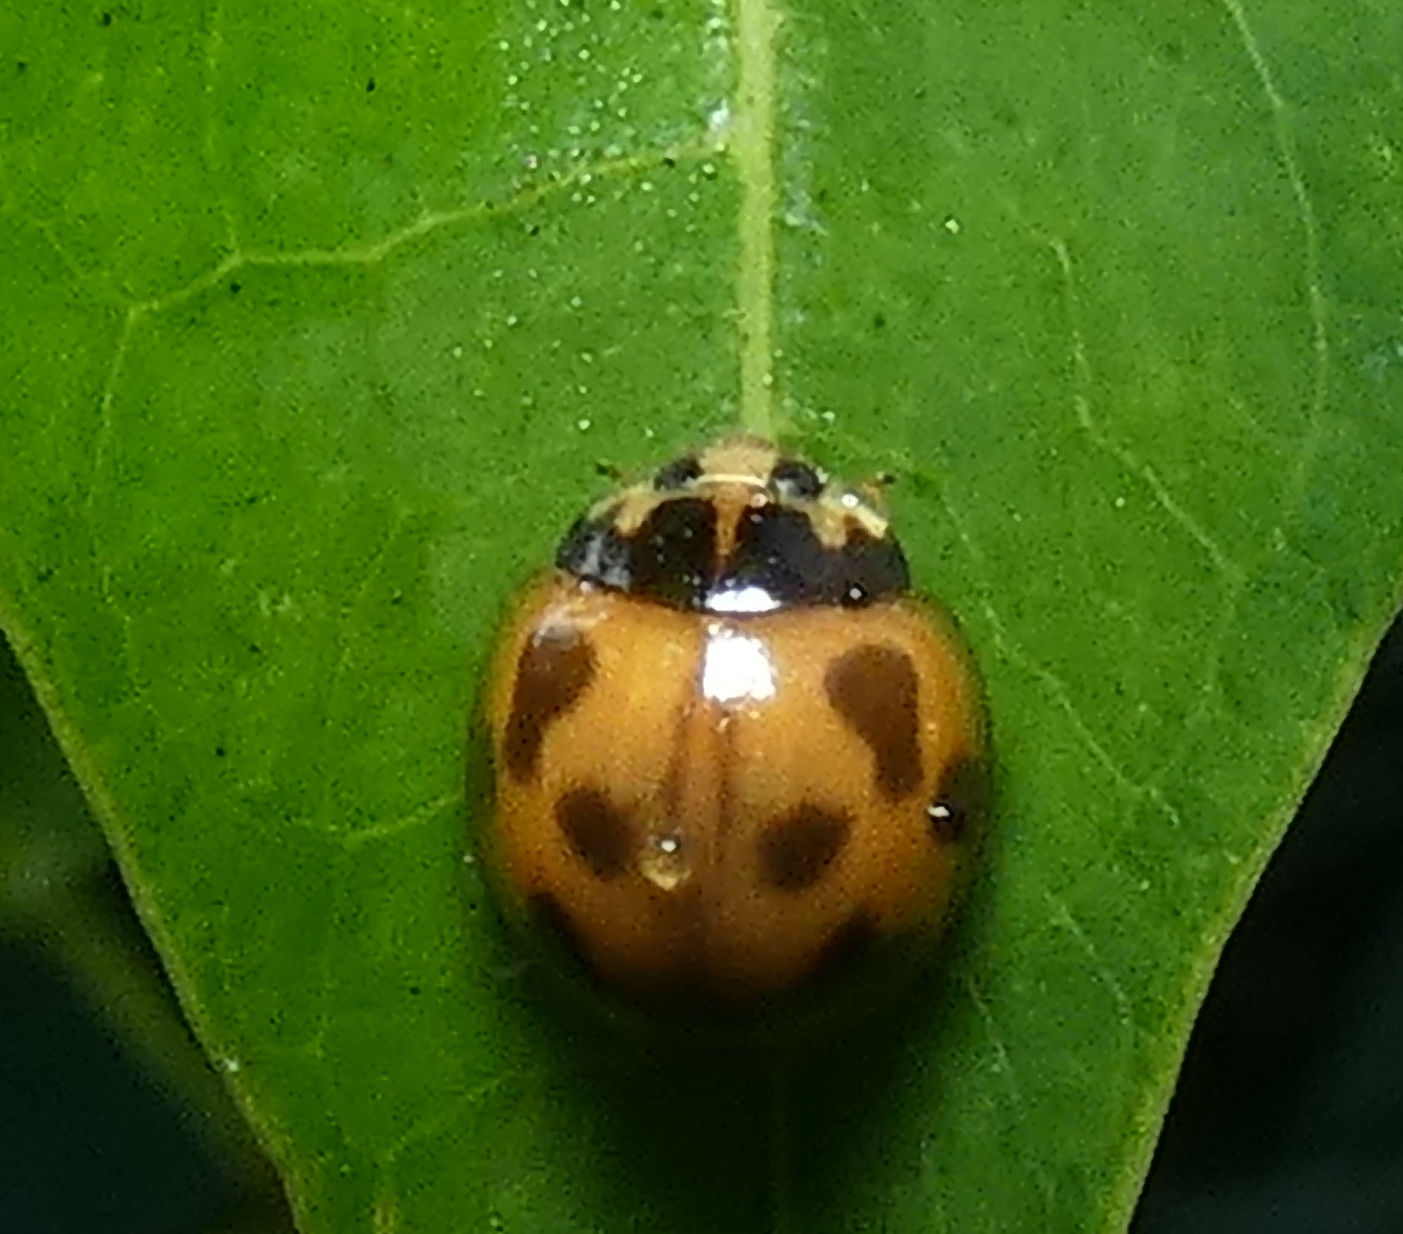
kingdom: Animalia
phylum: Arthropoda
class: Insecta
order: Coleoptera
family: Coccinellidae
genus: Coelophora
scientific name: Coelophora inaequalis
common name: Common australian lady beetle
